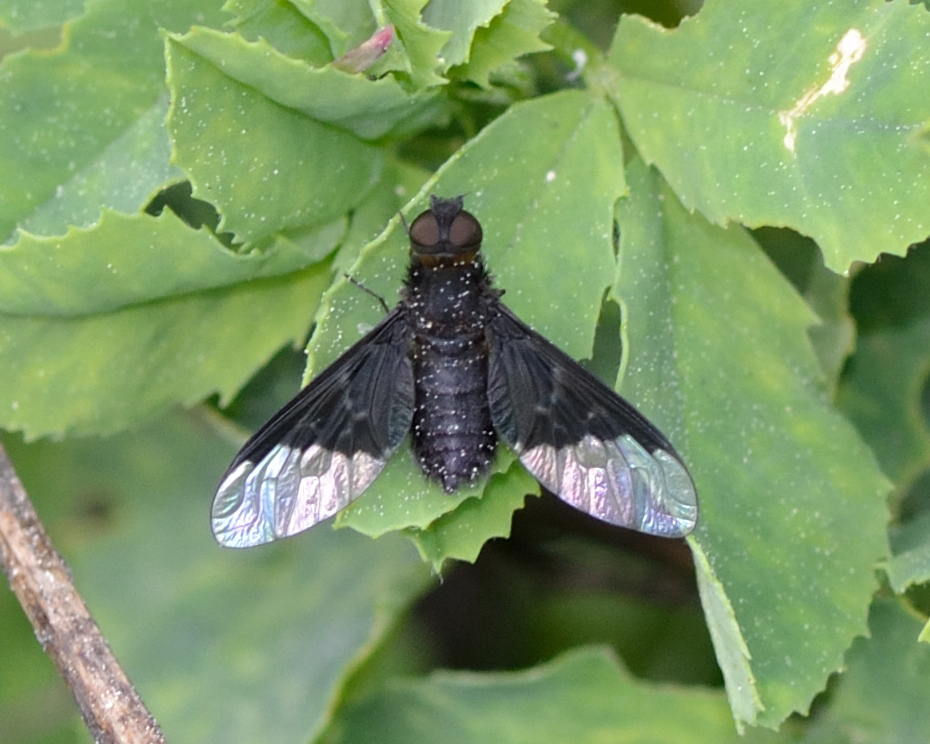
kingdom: Animalia
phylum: Arthropoda
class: Insecta
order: Diptera
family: Bombyliidae
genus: Hemipenthes
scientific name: Hemipenthes morio
